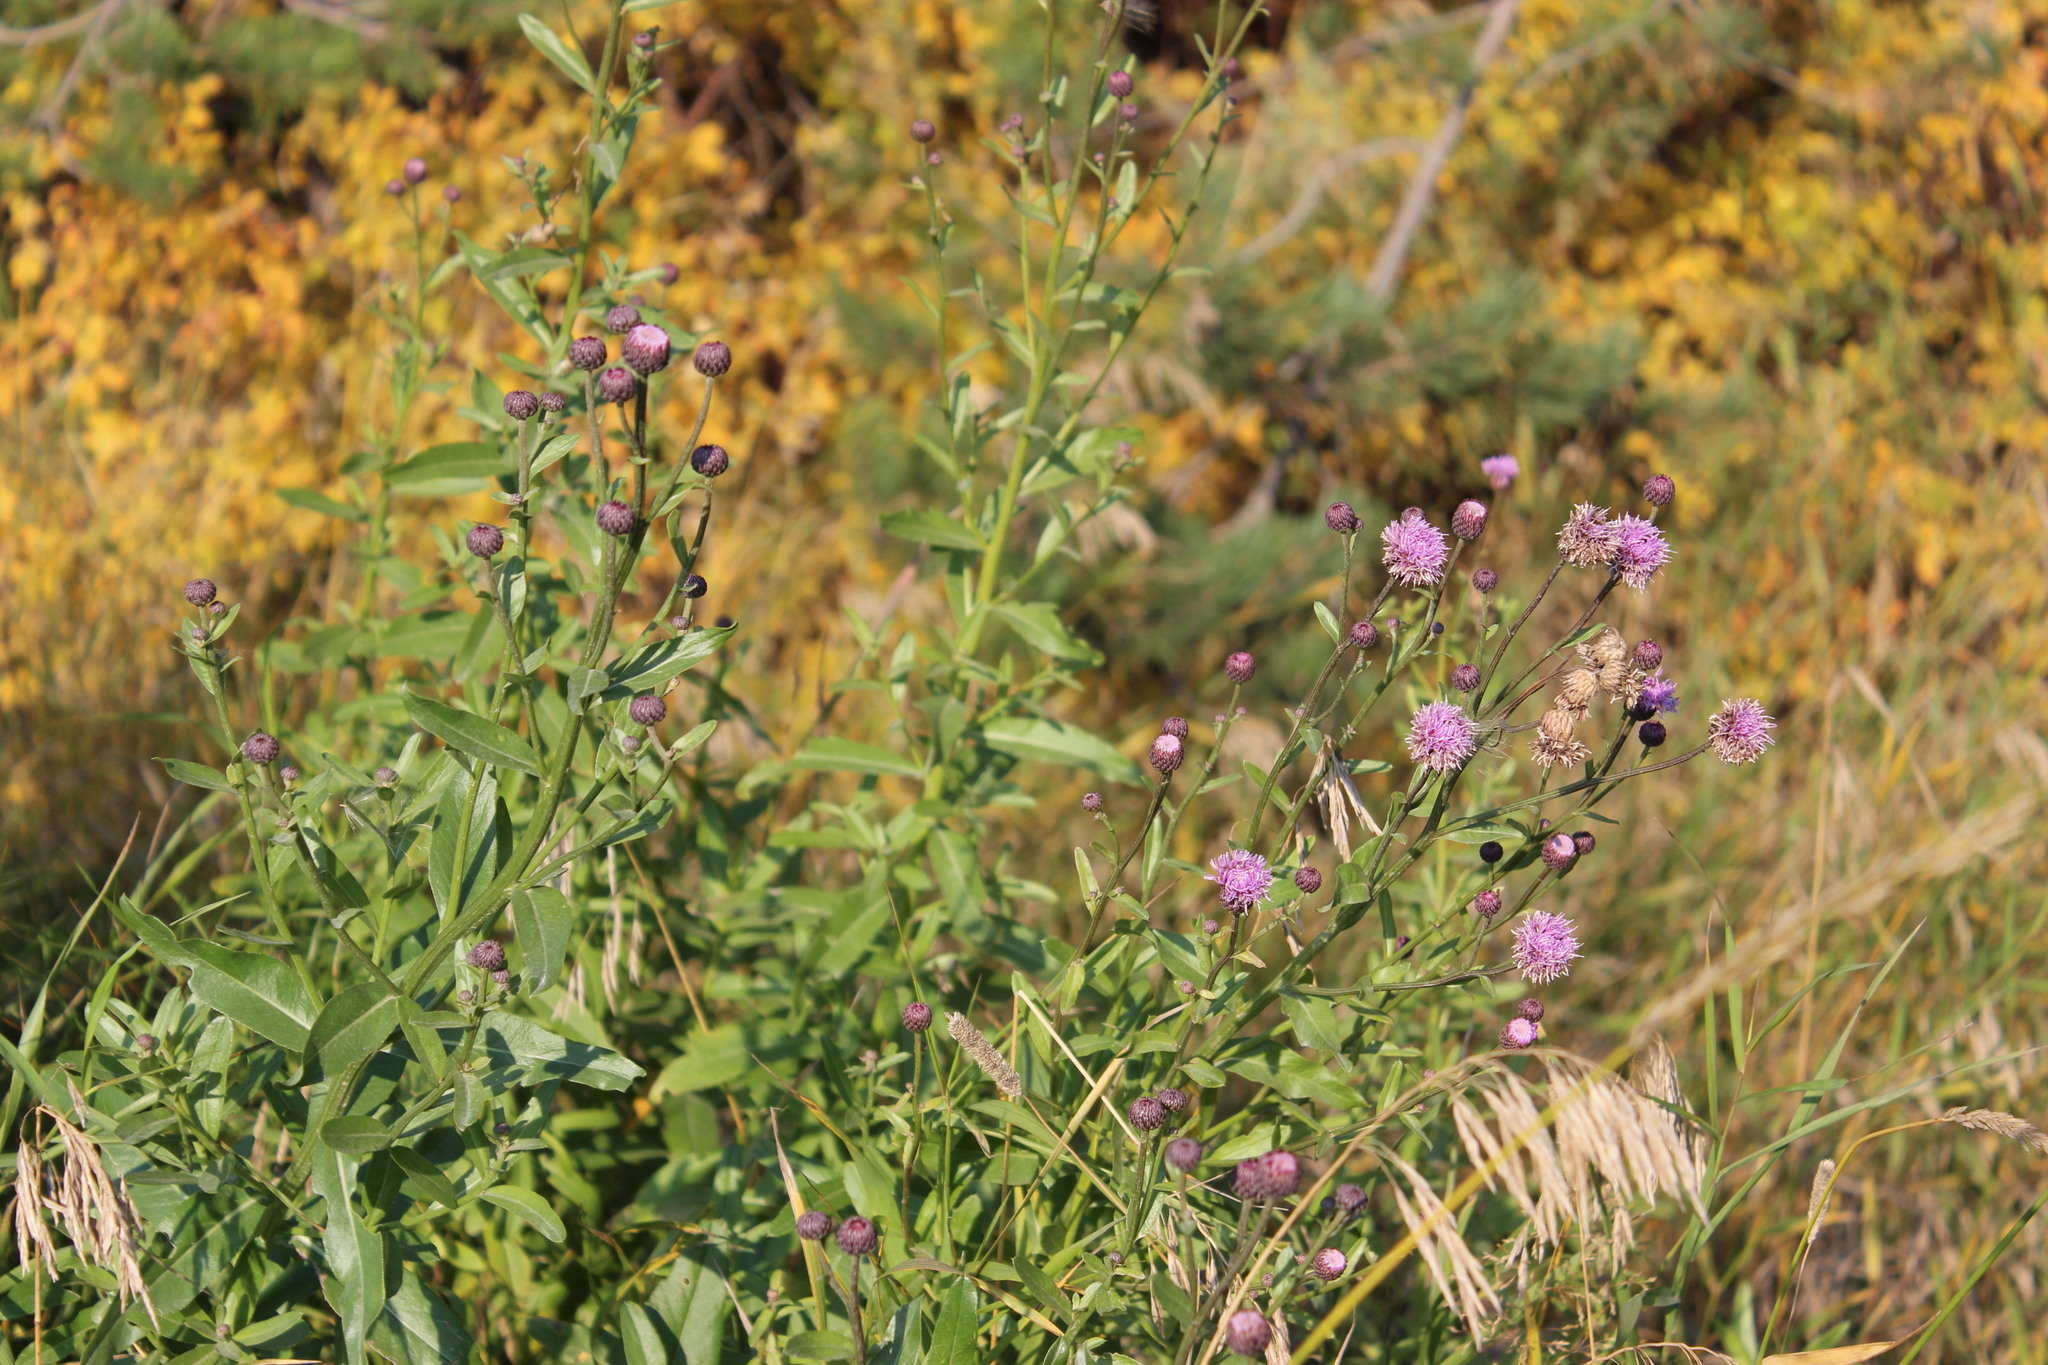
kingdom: Plantae
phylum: Tracheophyta
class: Magnoliopsida
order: Asterales
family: Asteraceae
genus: Cirsium
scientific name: Cirsium arvense
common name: Creeping thistle
